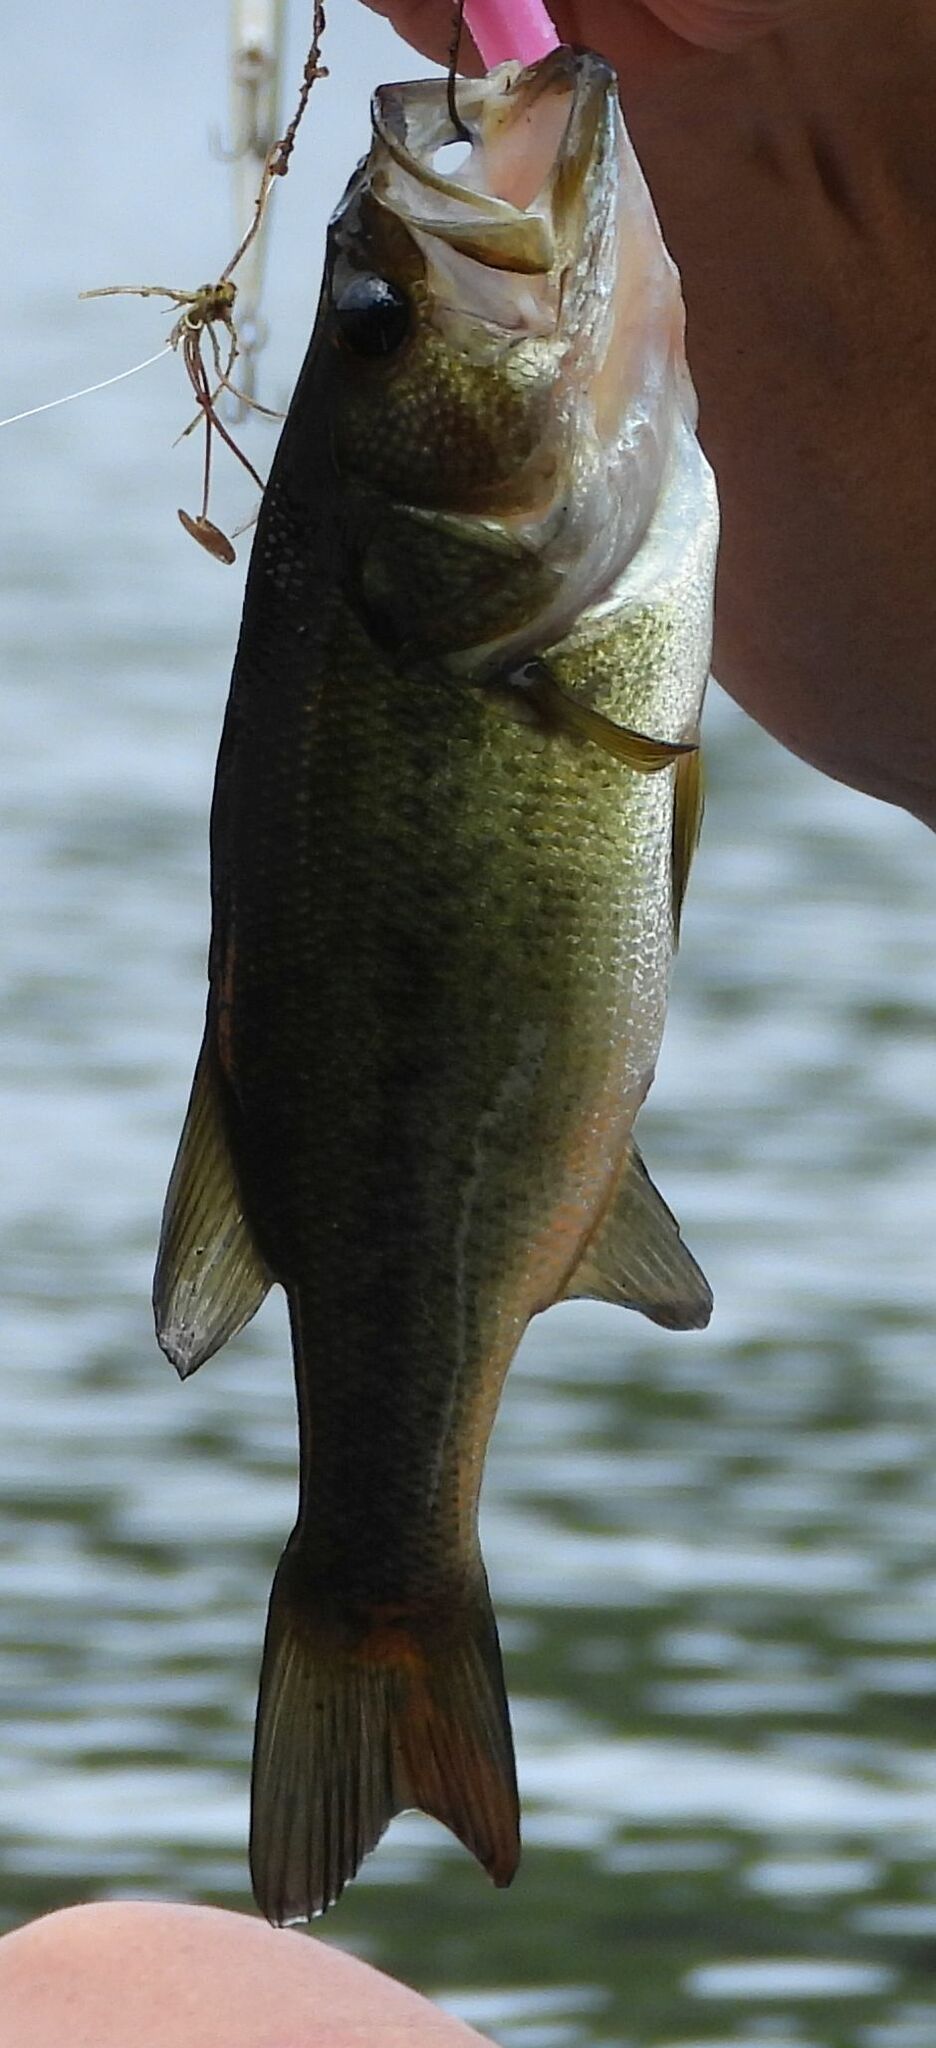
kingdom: Animalia
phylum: Chordata
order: Perciformes
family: Centrarchidae
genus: Micropterus
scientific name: Micropterus
